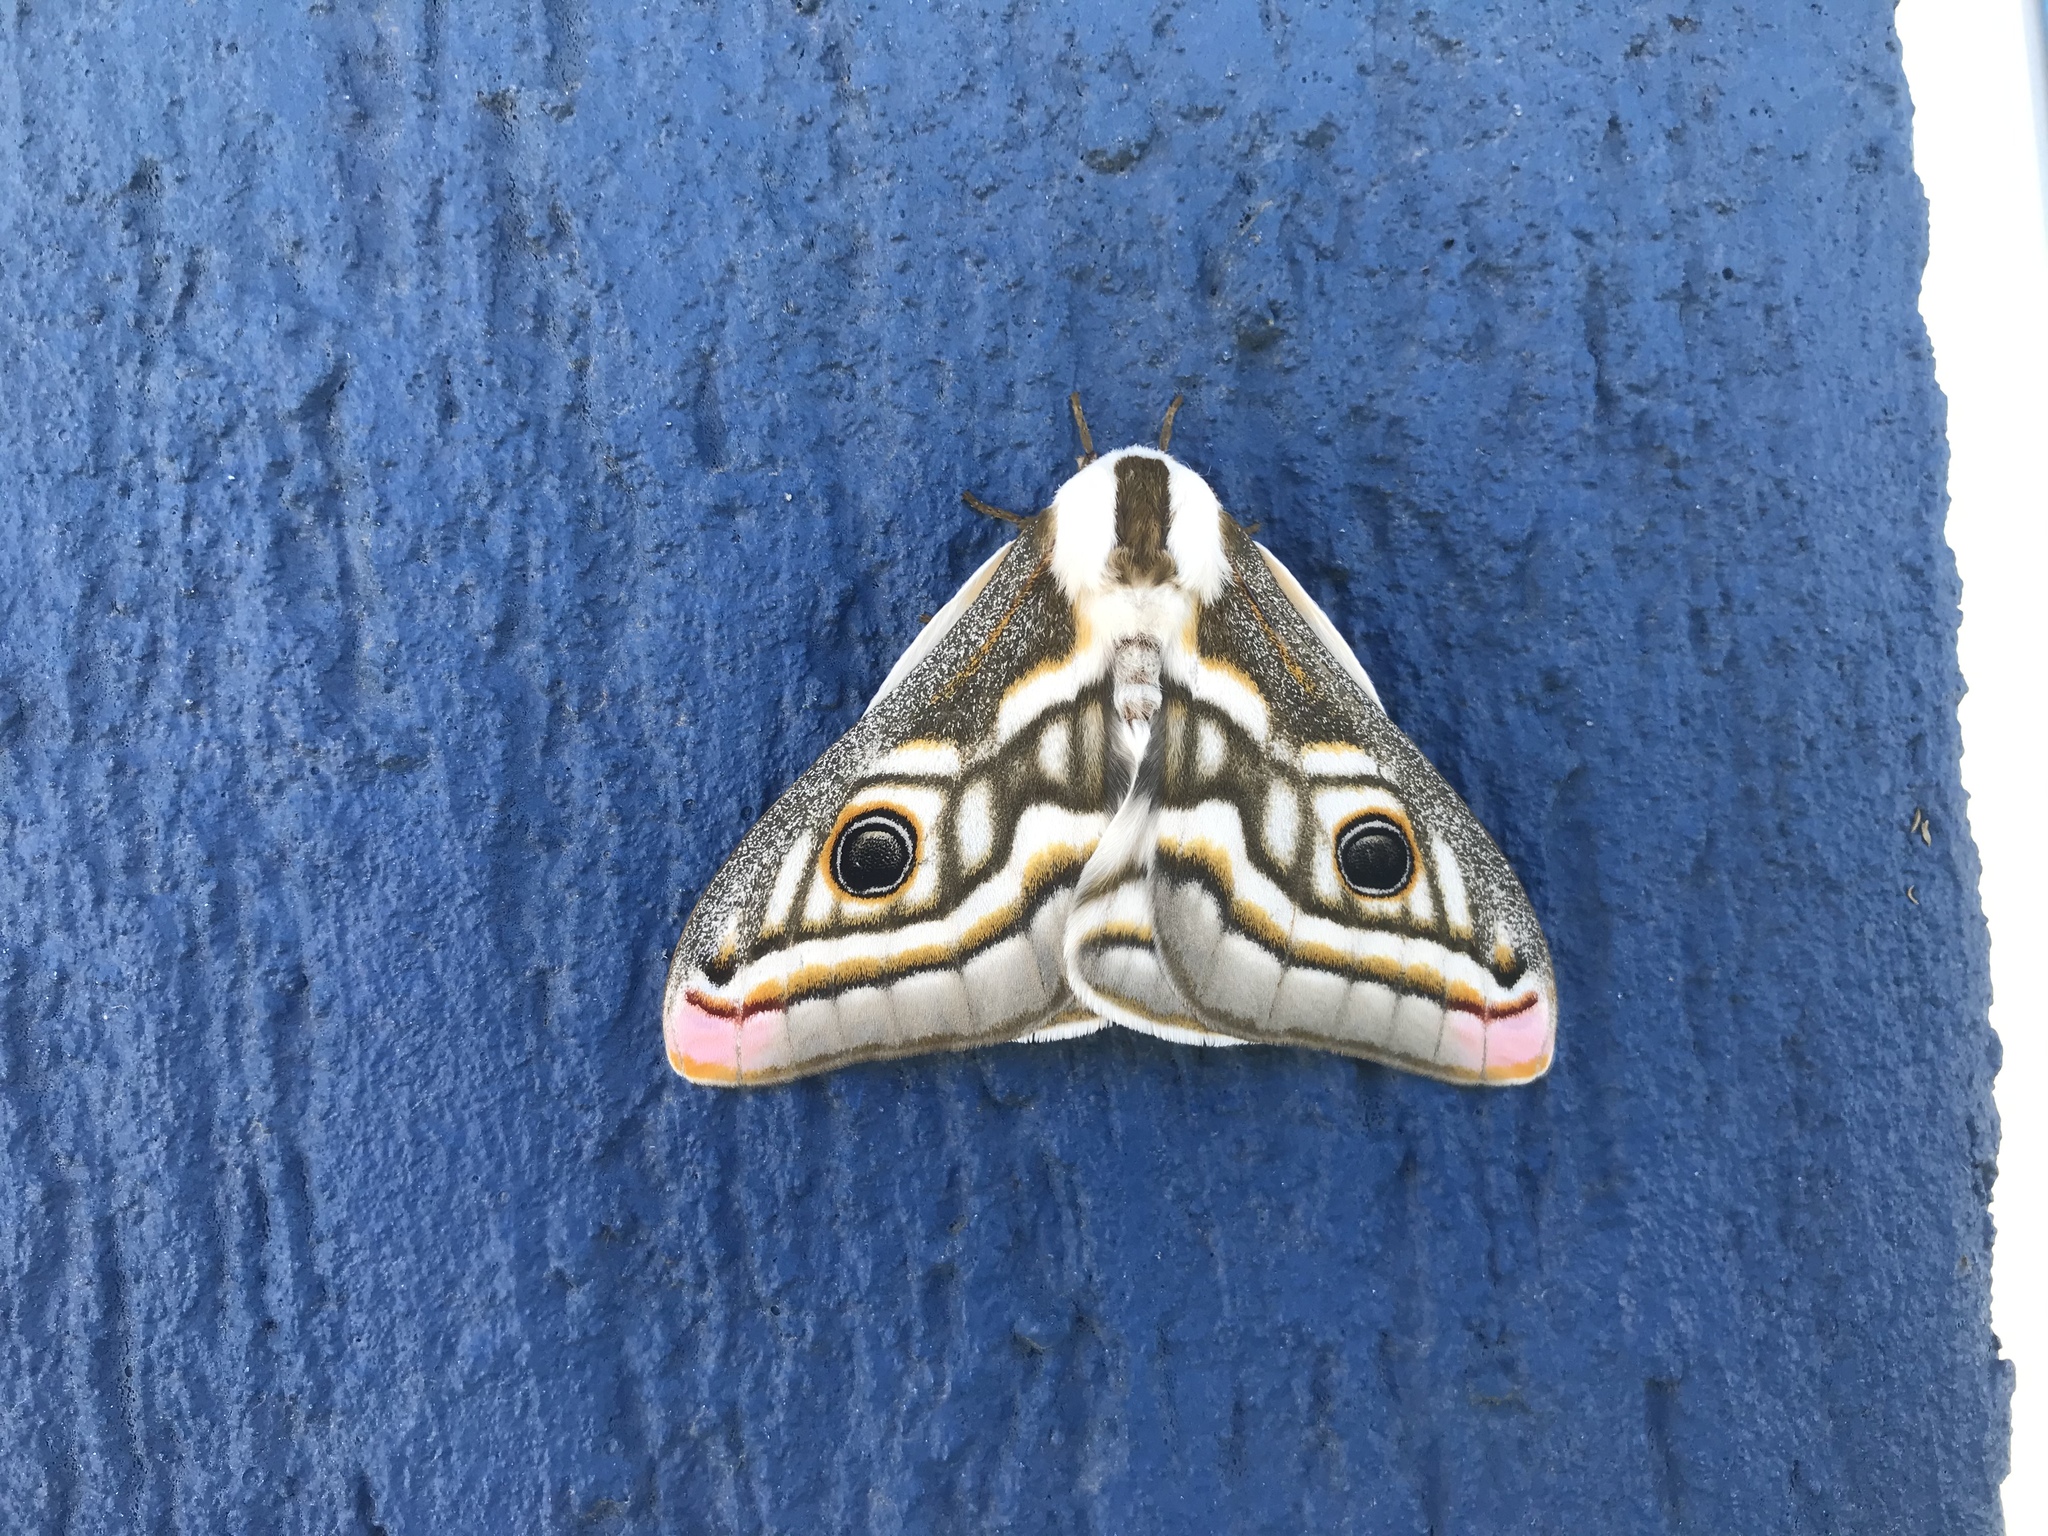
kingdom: Animalia
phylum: Arthropoda
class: Insecta
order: Lepidoptera
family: Saturniidae
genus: Heniocha
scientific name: Heniocha apollonia
